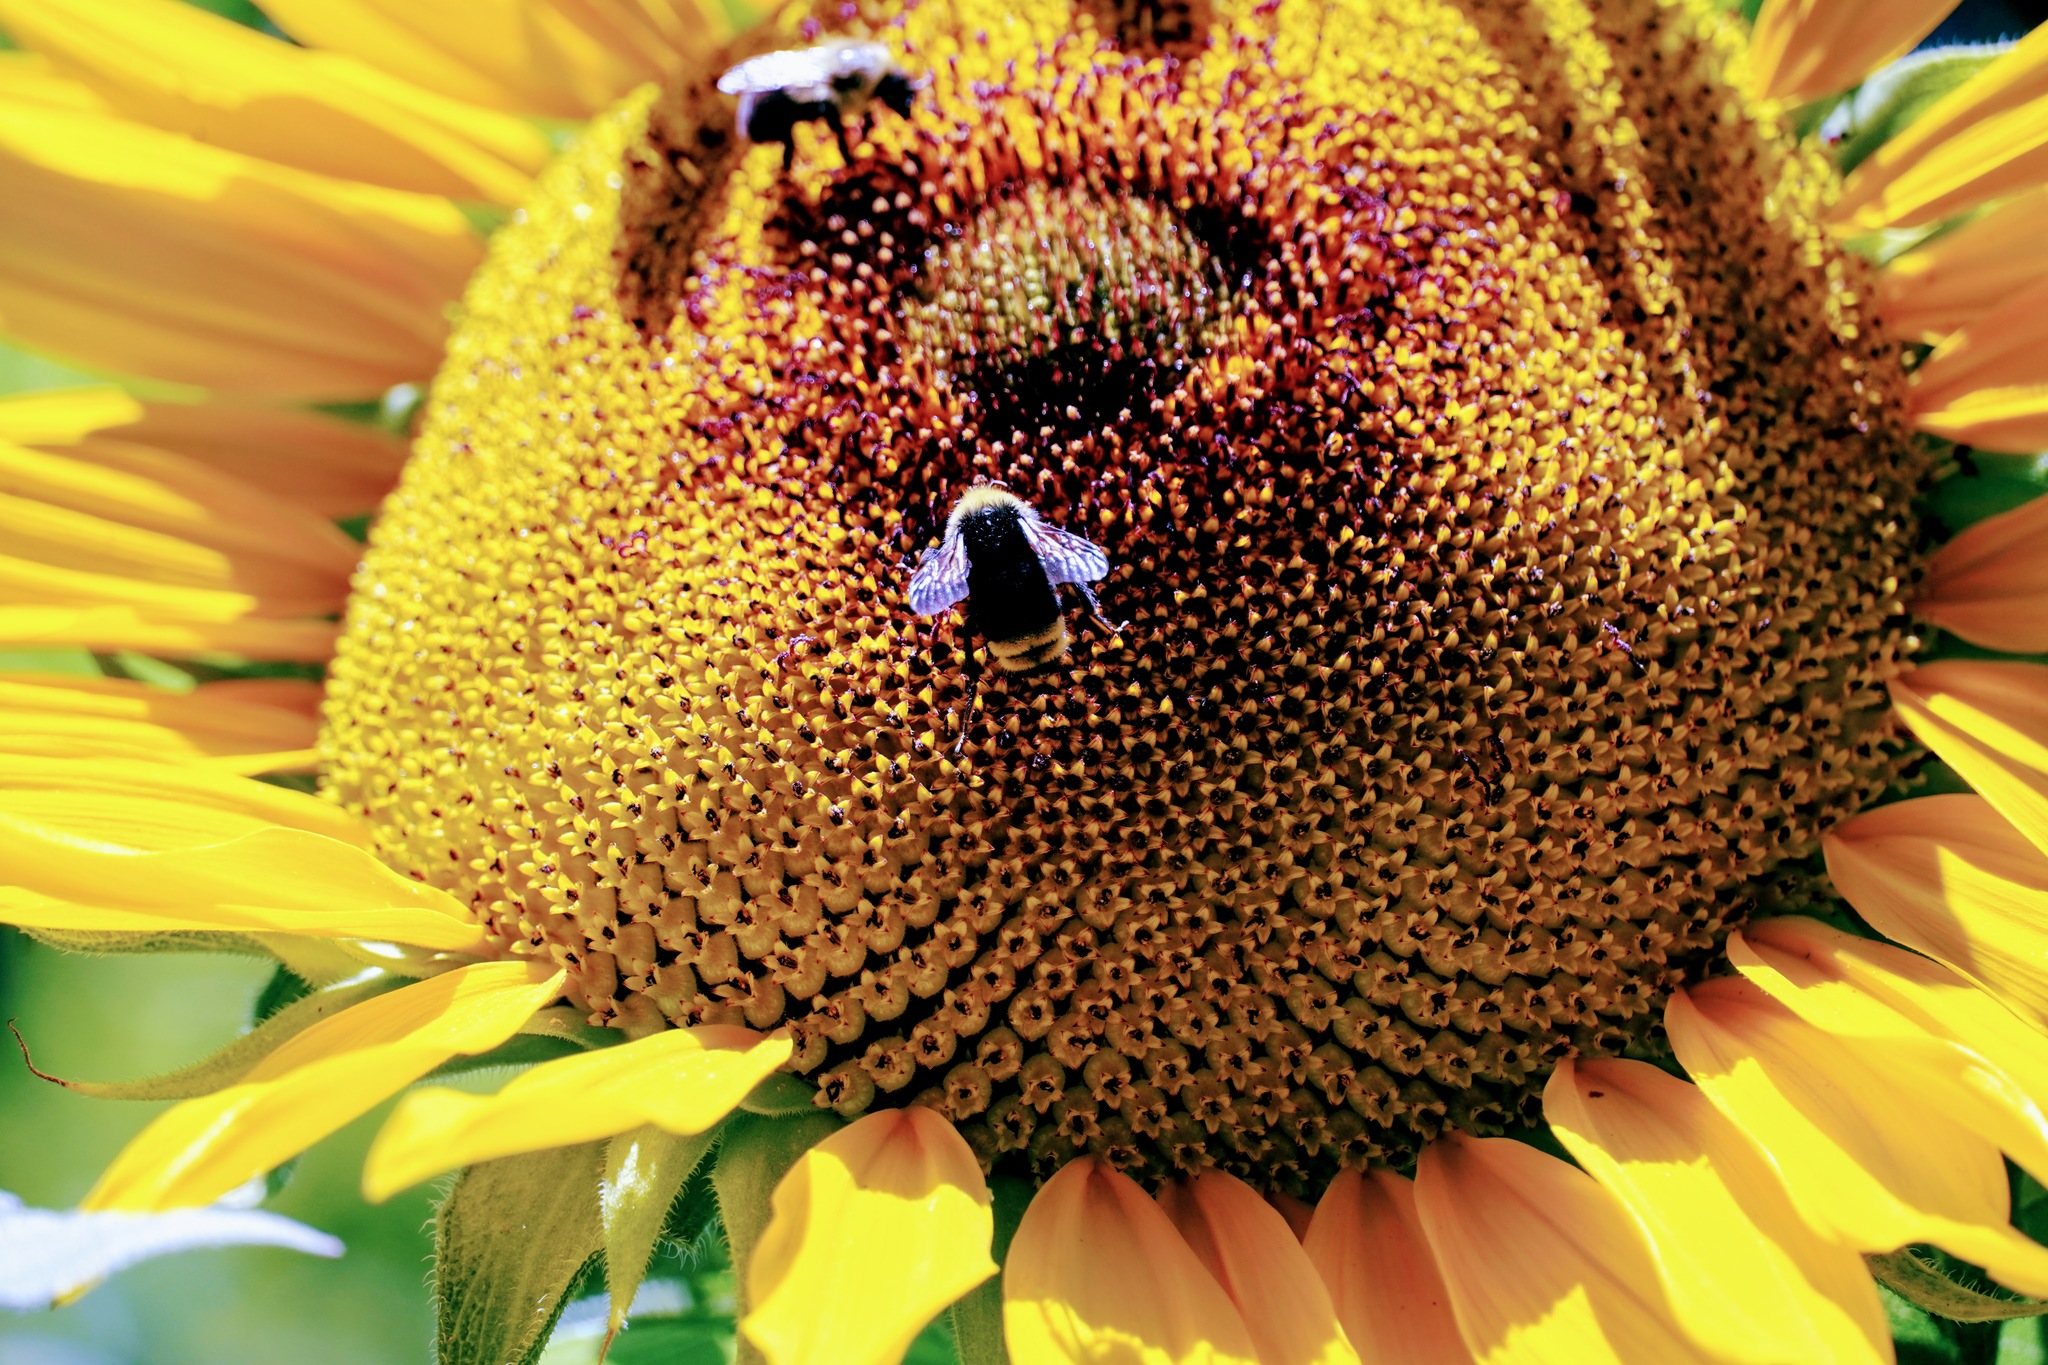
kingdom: Animalia
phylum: Arthropoda
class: Insecta
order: Hymenoptera
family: Apidae
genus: Bombus
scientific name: Bombus vosnesenskii
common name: Vosnesensky bumble bee
